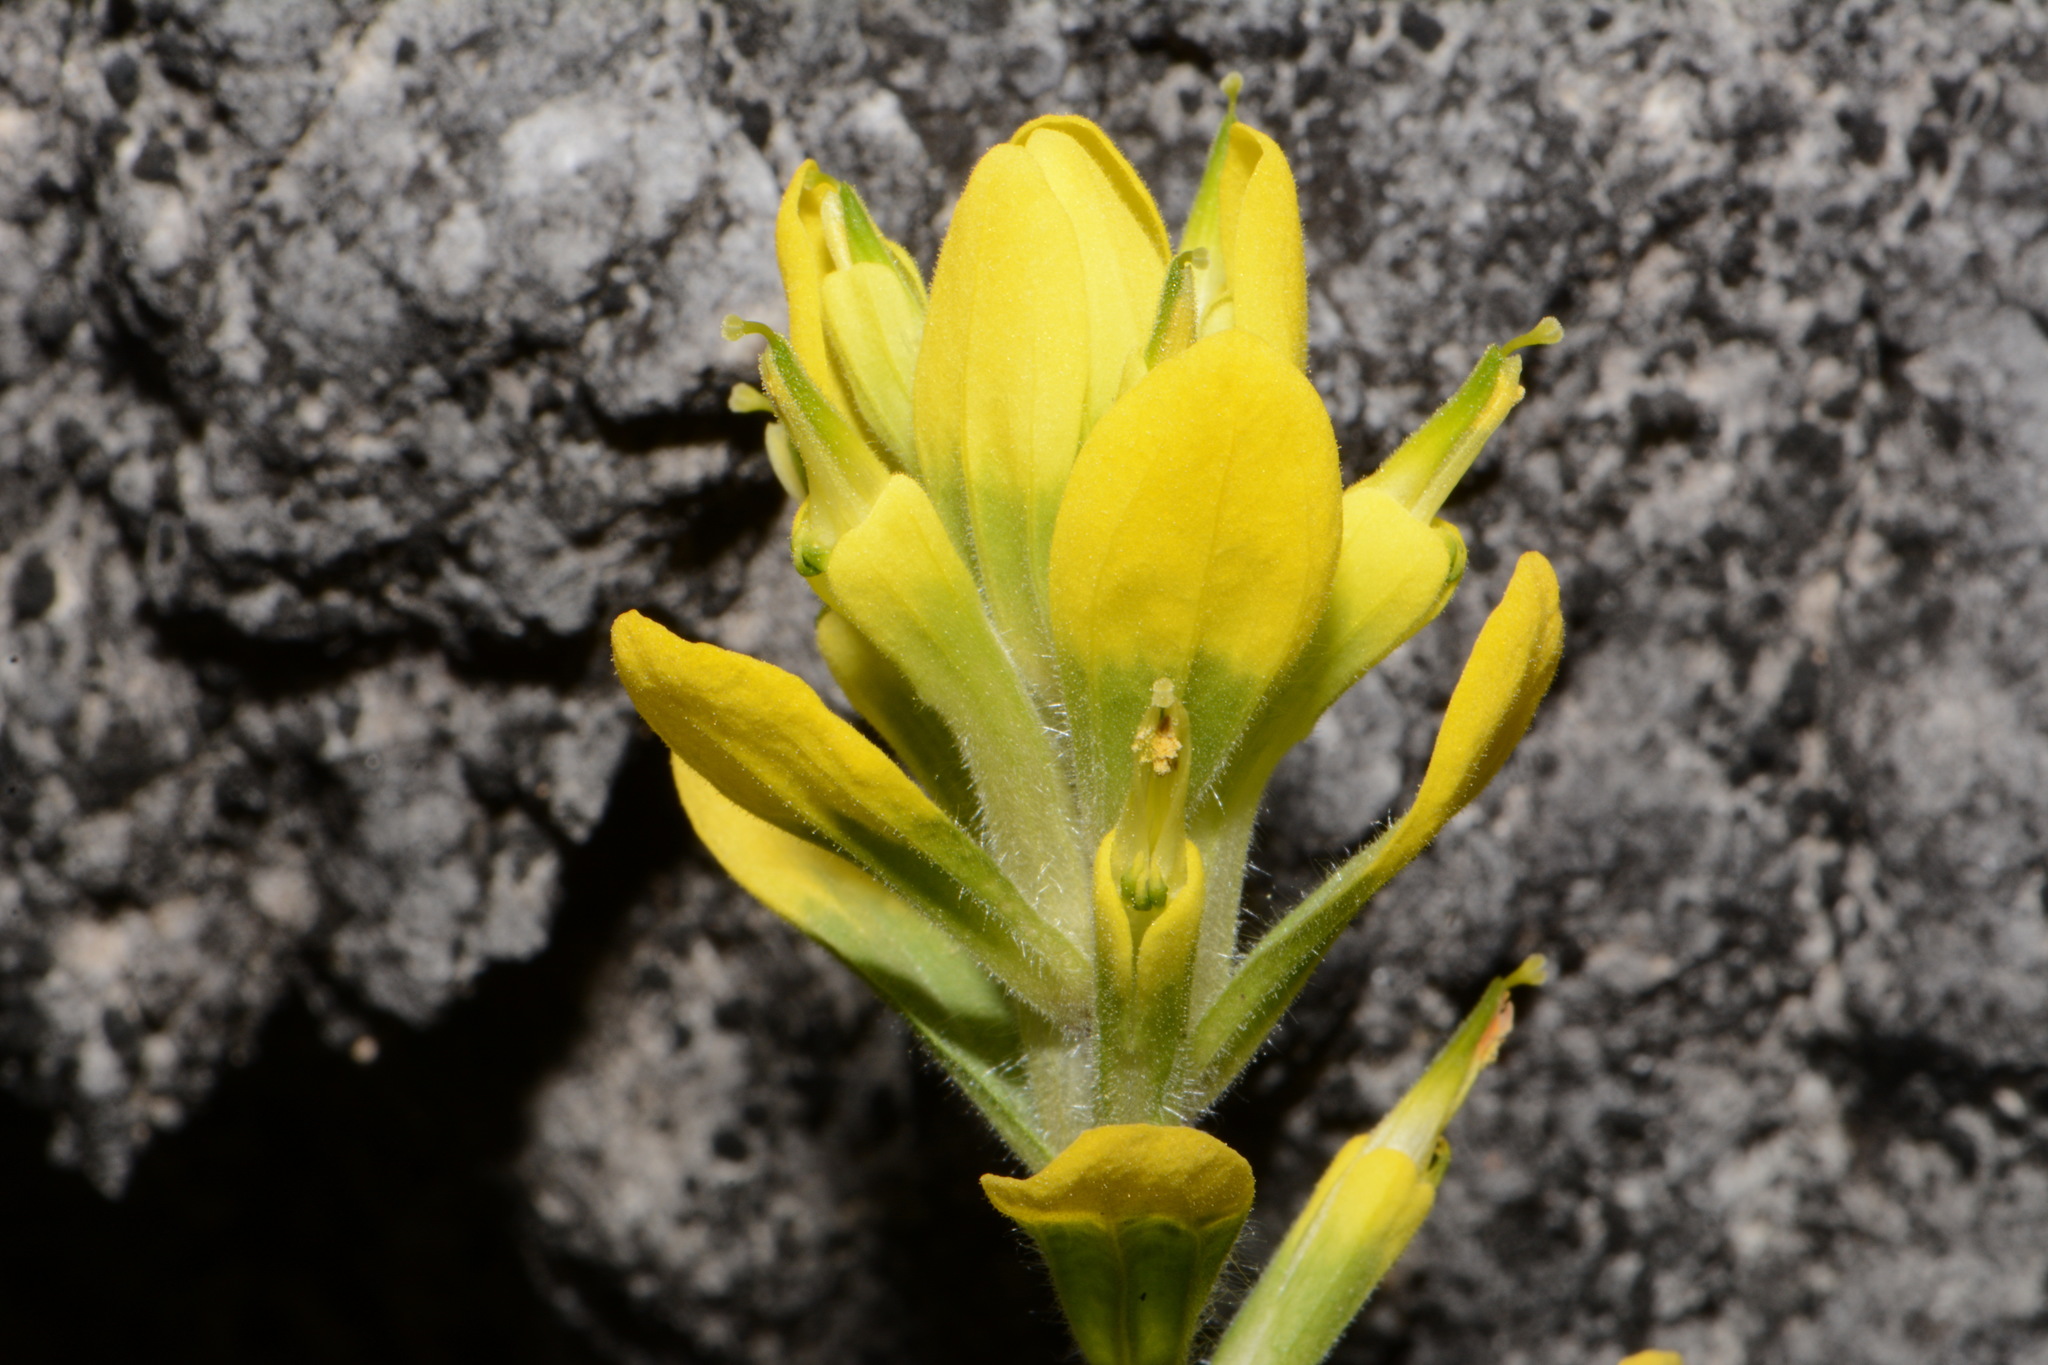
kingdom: Plantae
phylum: Tracheophyta
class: Magnoliopsida
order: Lamiales
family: Orobanchaceae
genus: Castilleja
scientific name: Castilleja kraliana
